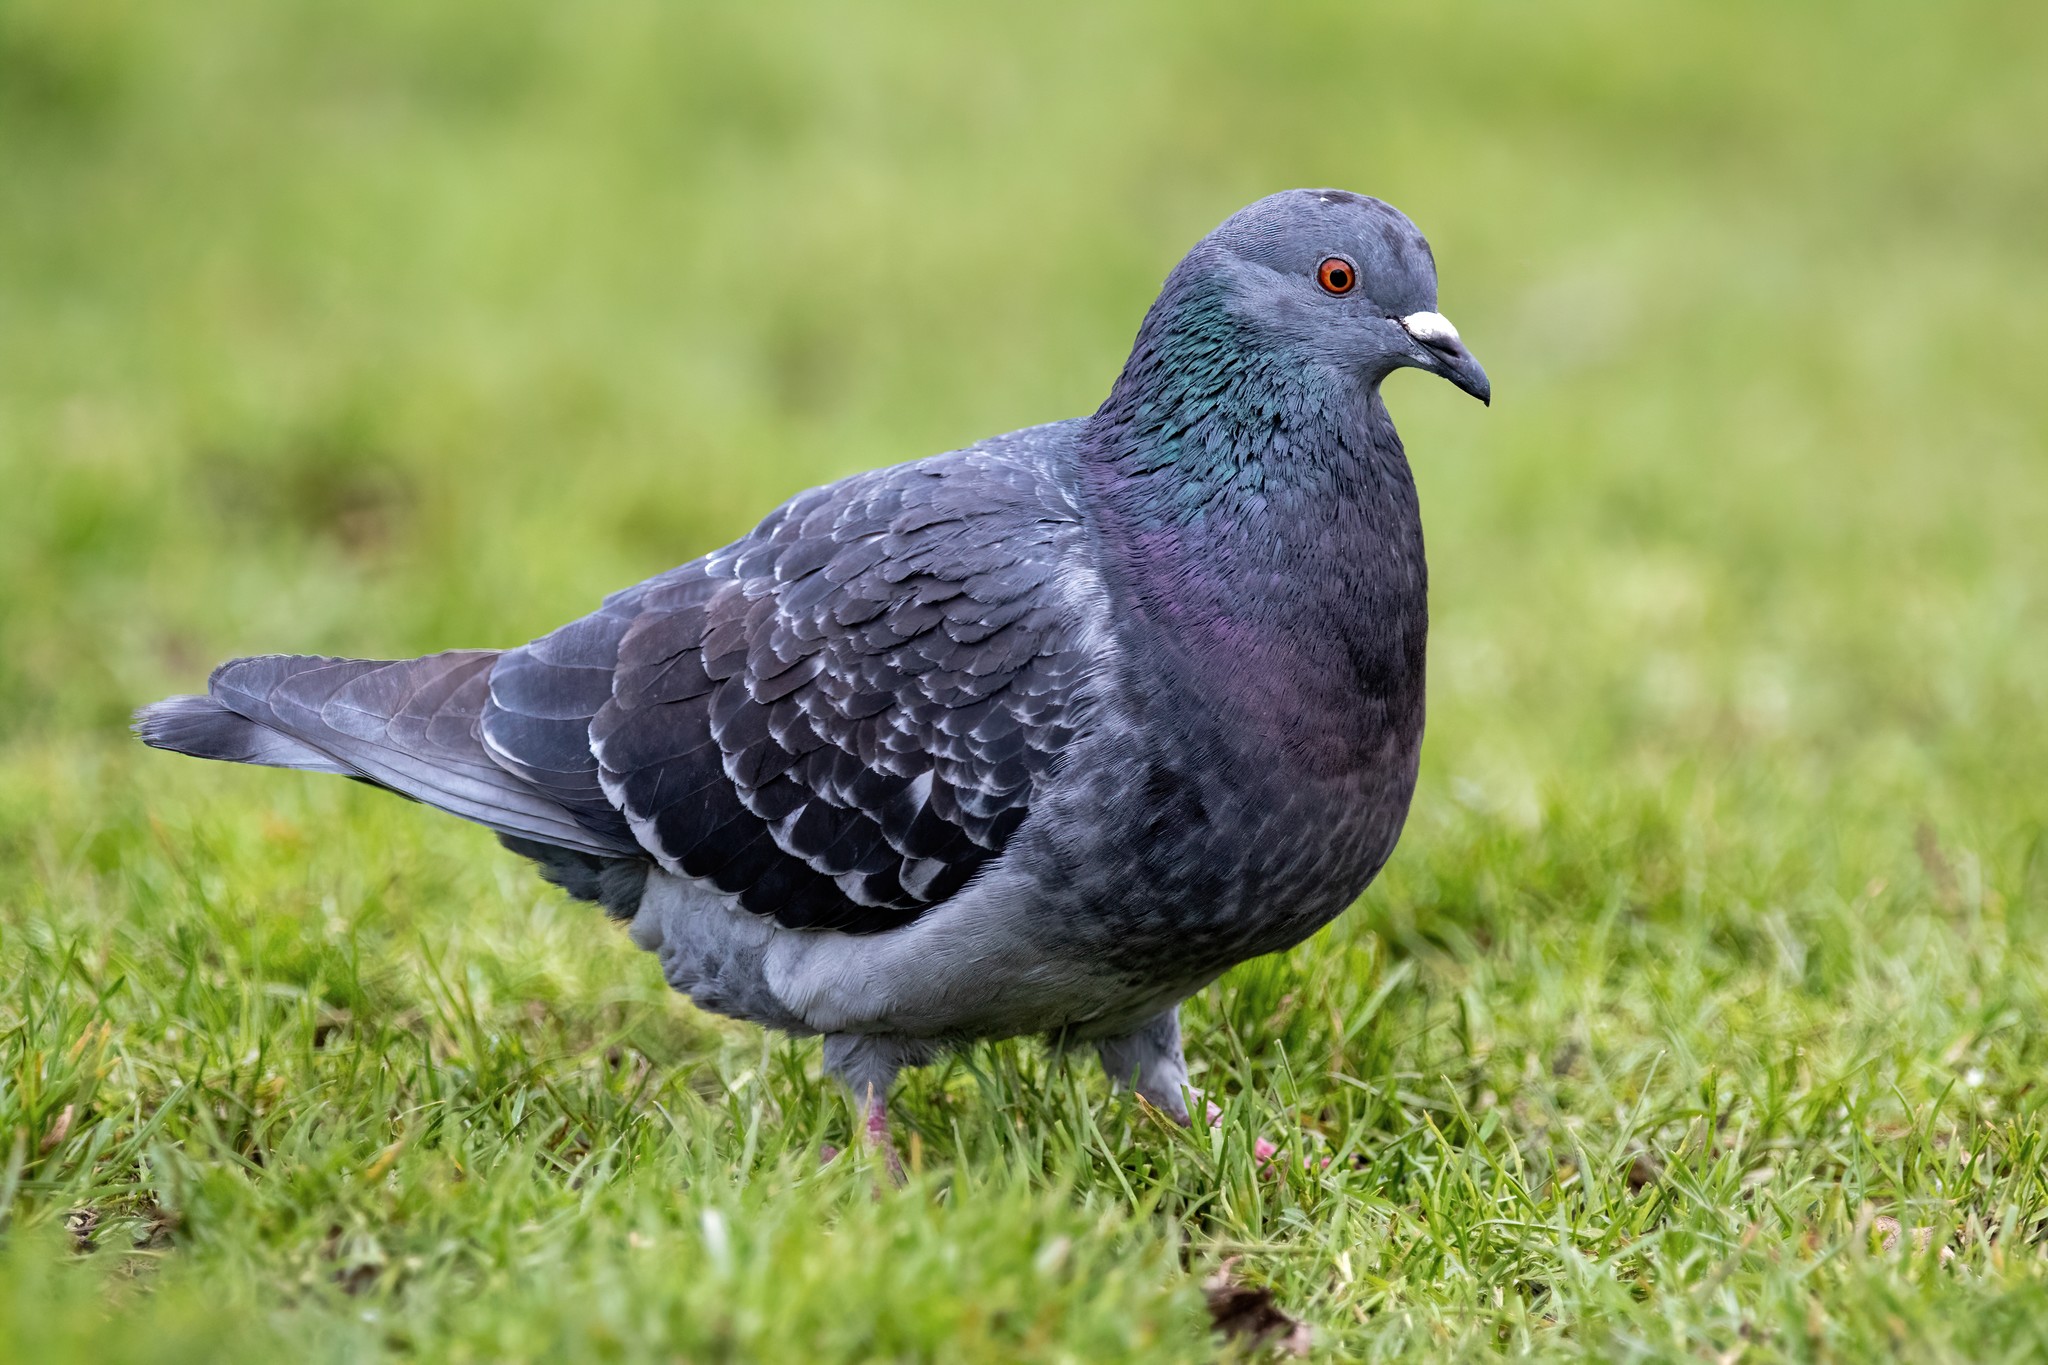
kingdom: Animalia
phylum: Chordata
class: Aves
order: Columbiformes
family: Columbidae
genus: Columba
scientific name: Columba livia
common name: Rock pigeon
